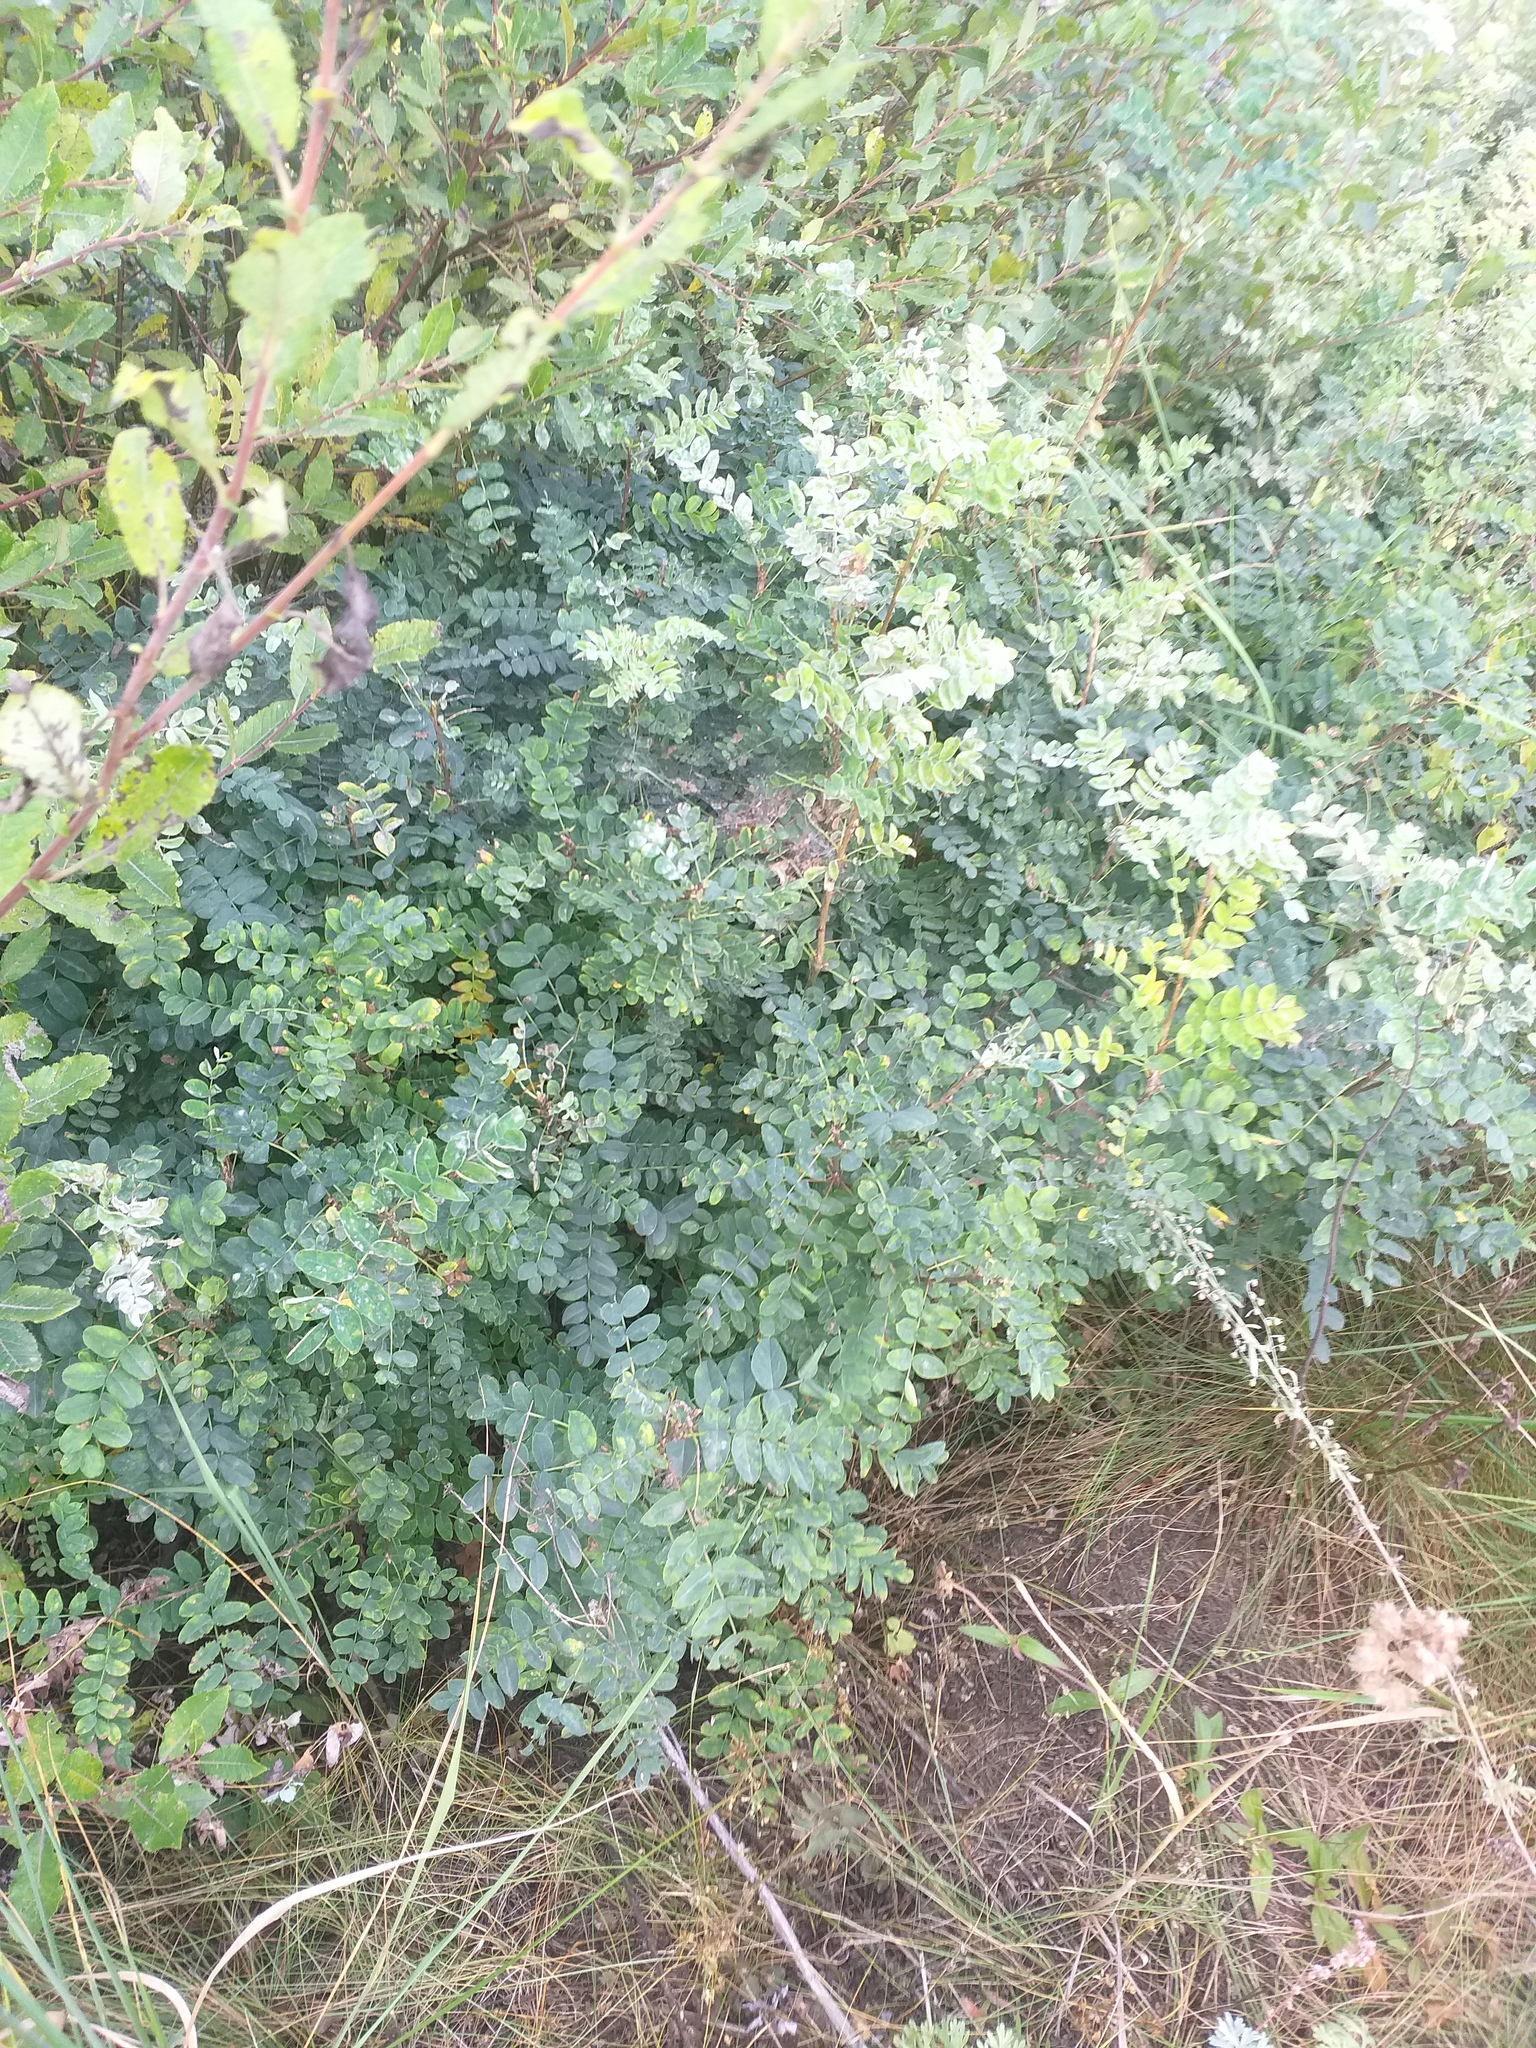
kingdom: Plantae
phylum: Tracheophyta
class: Magnoliopsida
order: Fabales
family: Fabaceae
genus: Caragana
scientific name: Caragana arborescens
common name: Siberian peashrub
